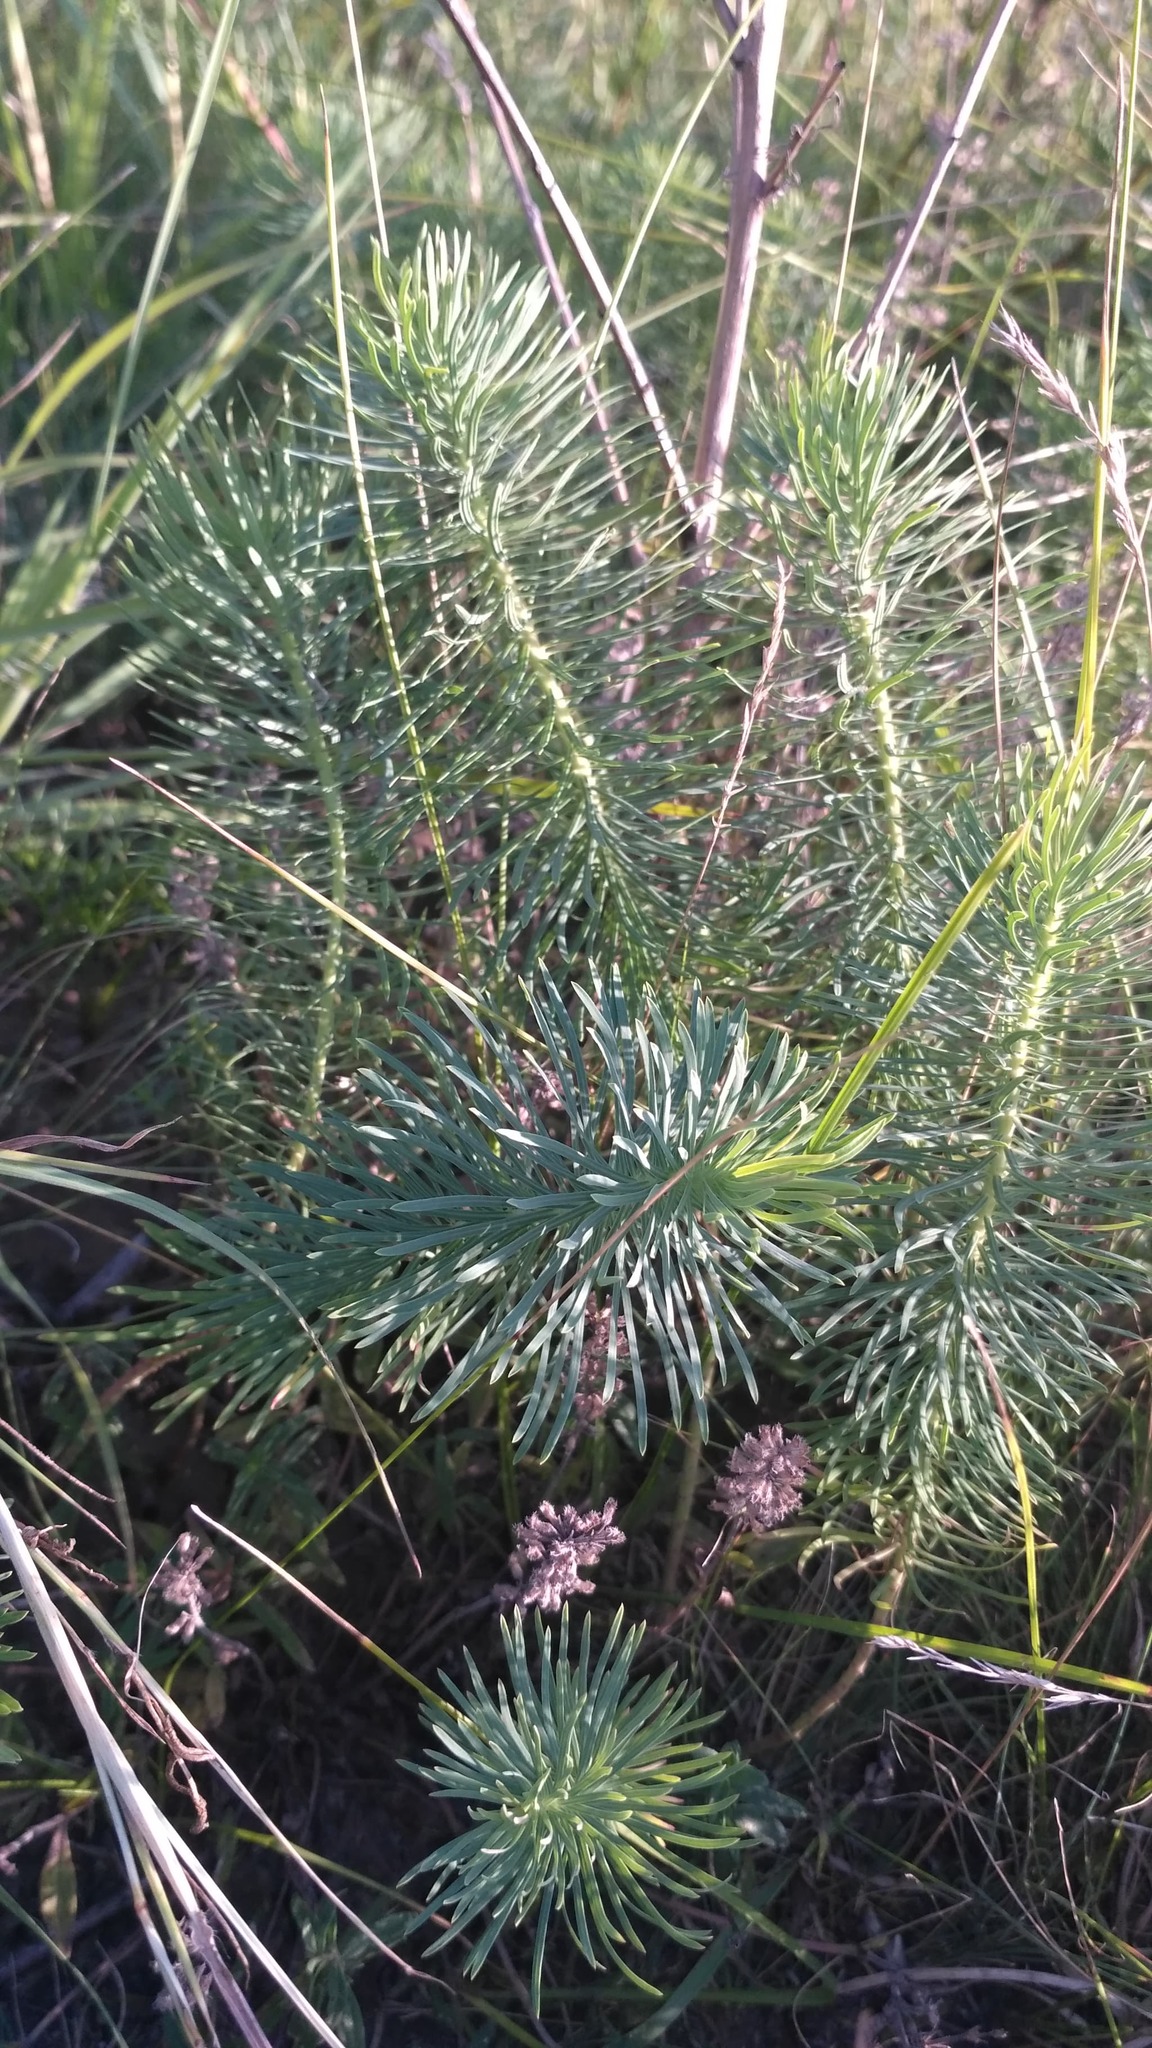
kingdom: Plantae
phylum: Tracheophyta
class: Magnoliopsida
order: Malpighiales
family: Euphorbiaceae
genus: Euphorbia
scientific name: Euphorbia cyparissias
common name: Cypress spurge
